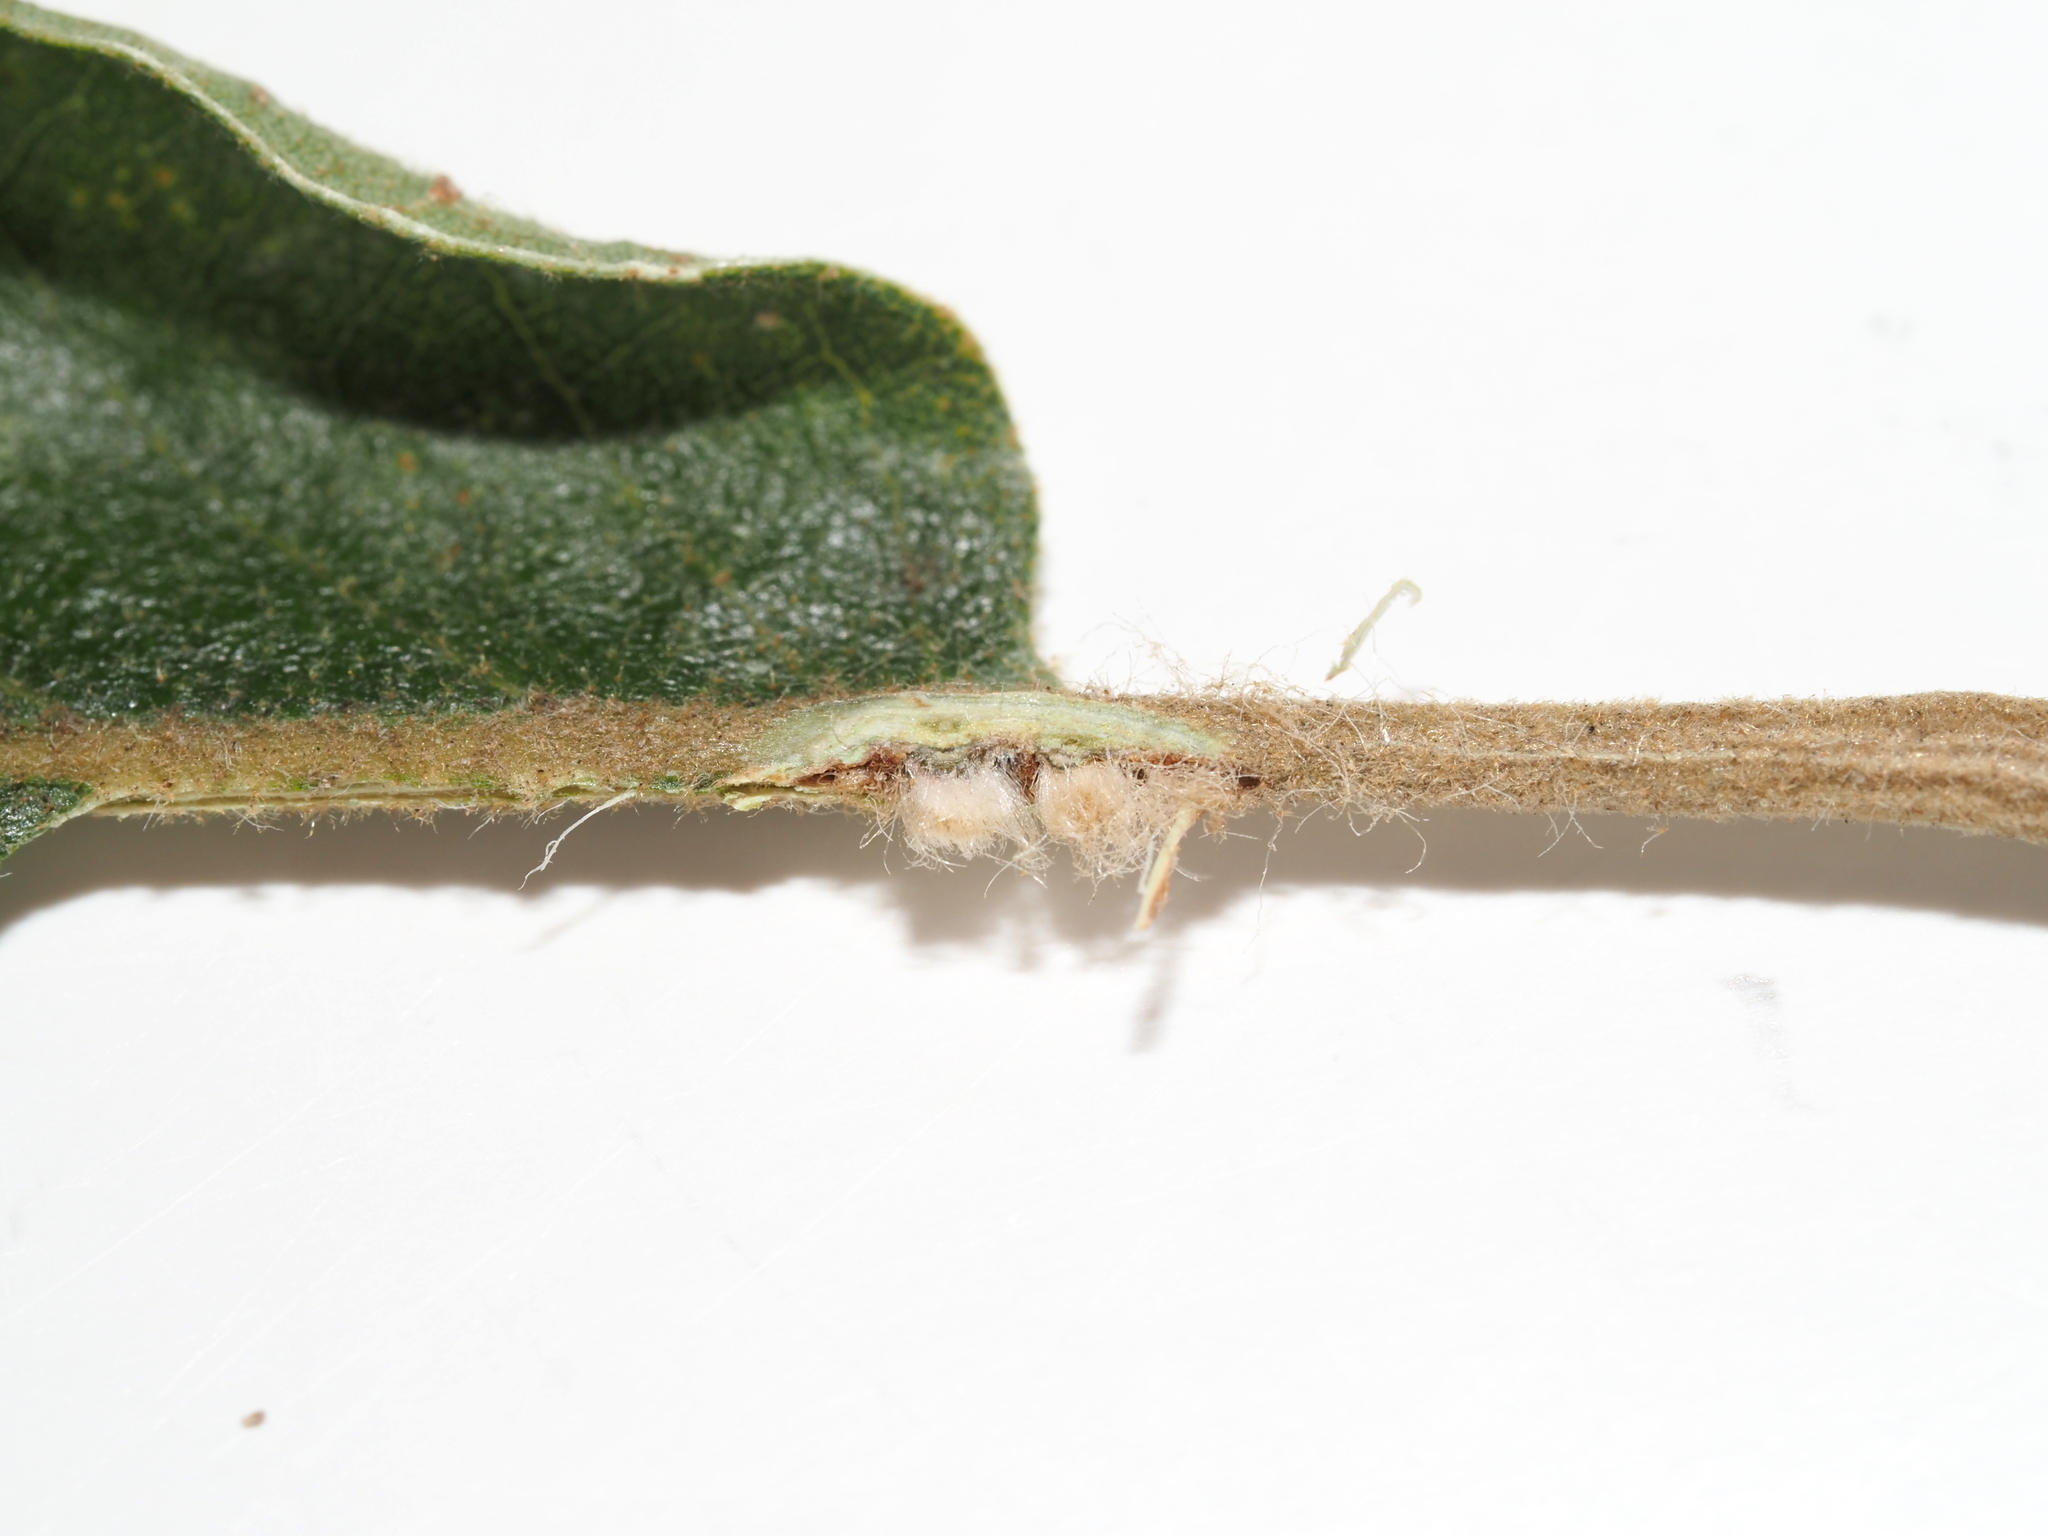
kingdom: Animalia
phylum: Arthropoda
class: Insecta
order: Hymenoptera
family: Cynipidae
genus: Andricus
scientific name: Andricus Druon pattoni
